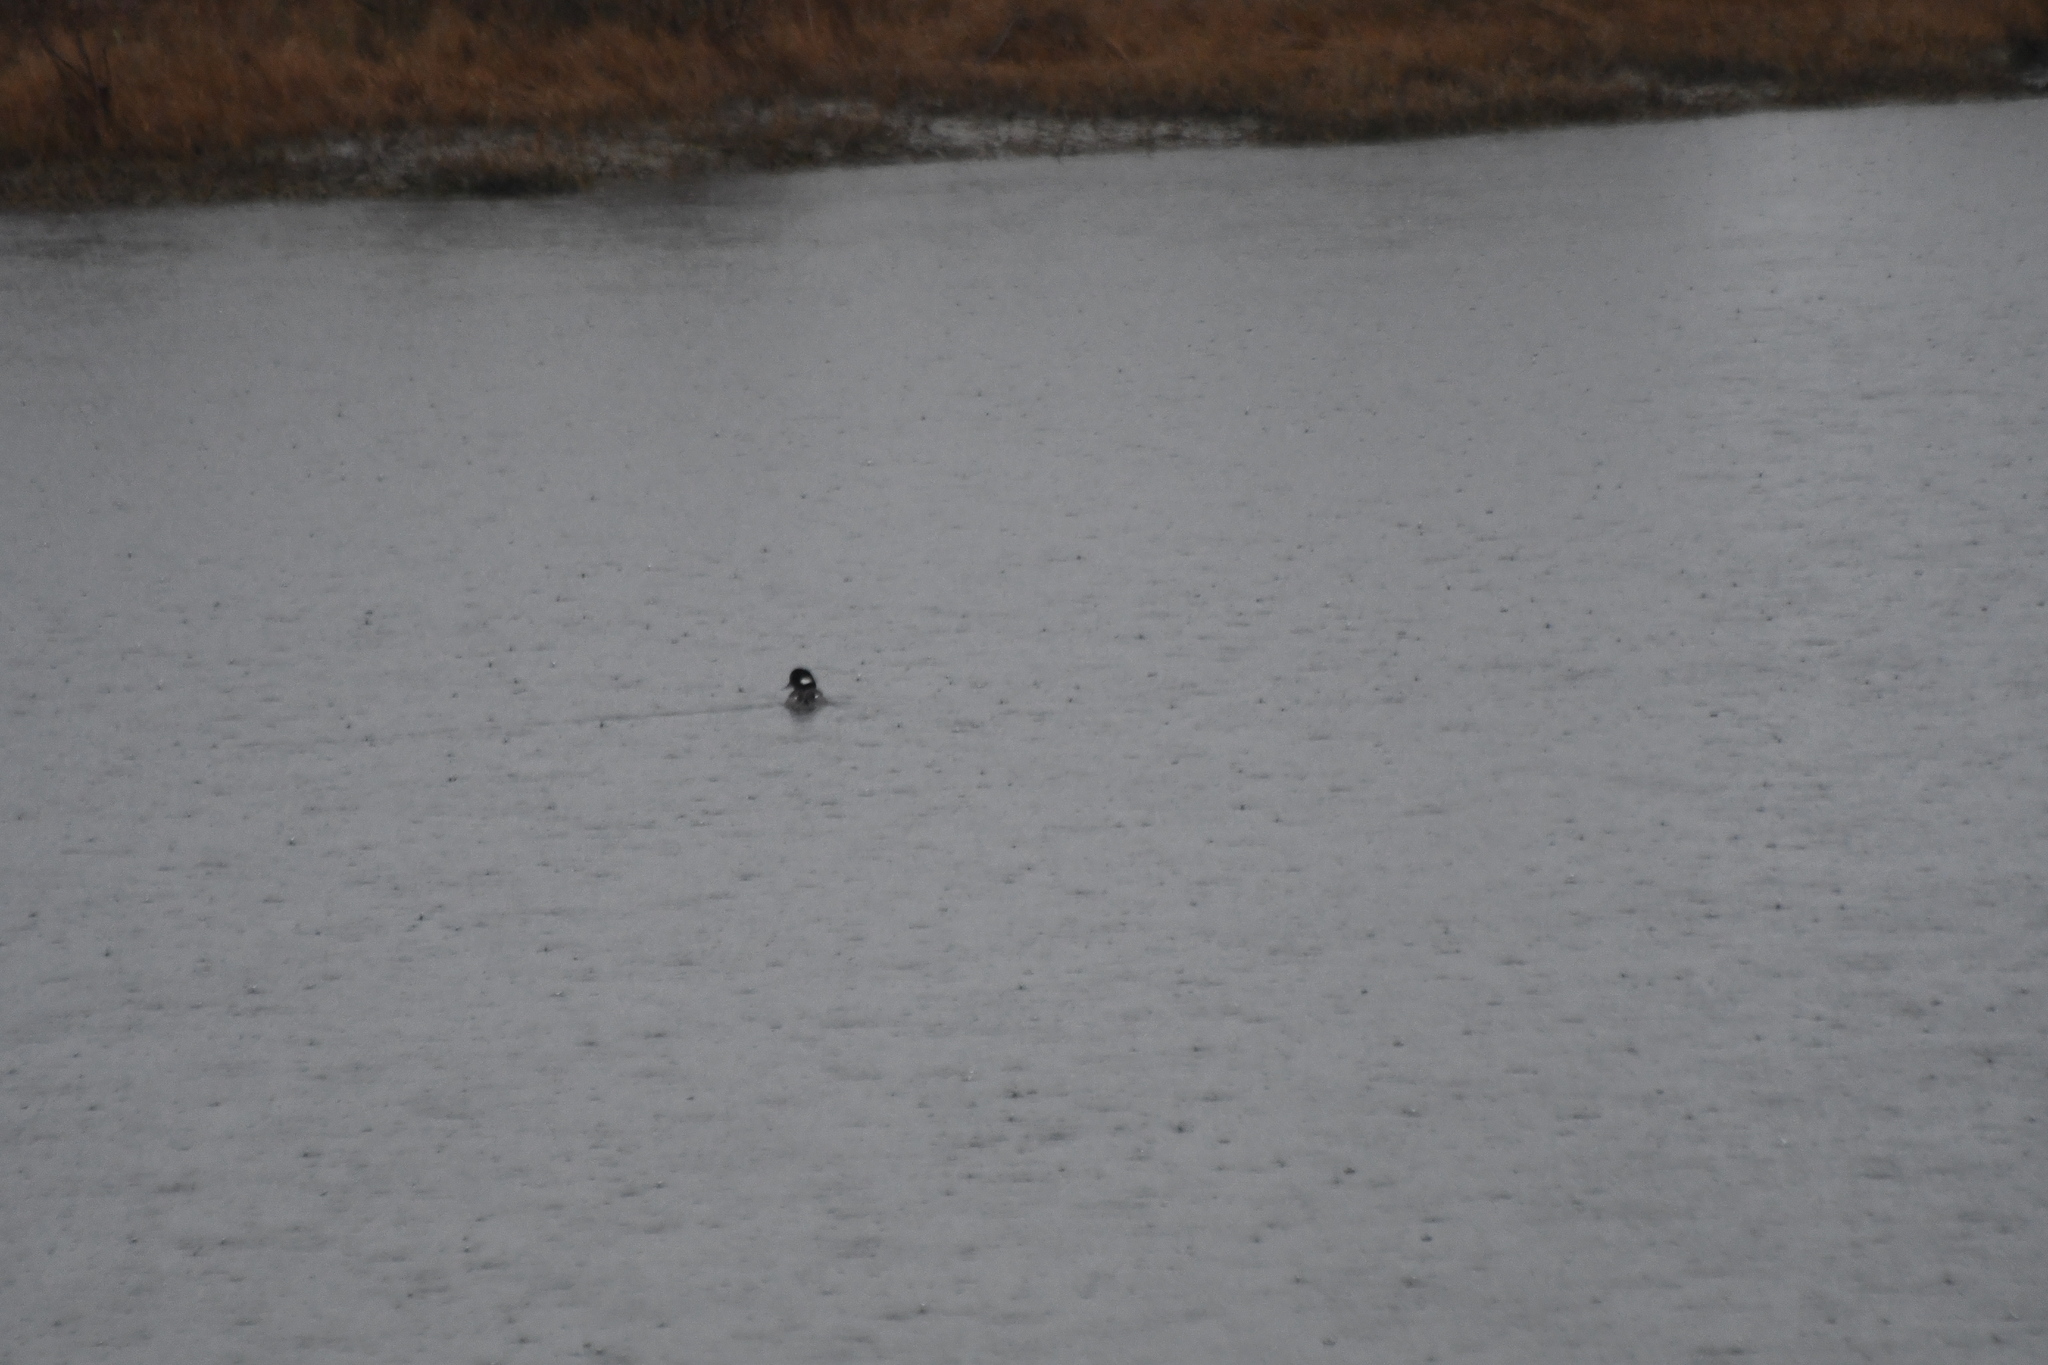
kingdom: Animalia
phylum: Chordata
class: Aves
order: Anseriformes
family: Anatidae
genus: Bucephala
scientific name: Bucephala albeola
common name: Bufflehead
